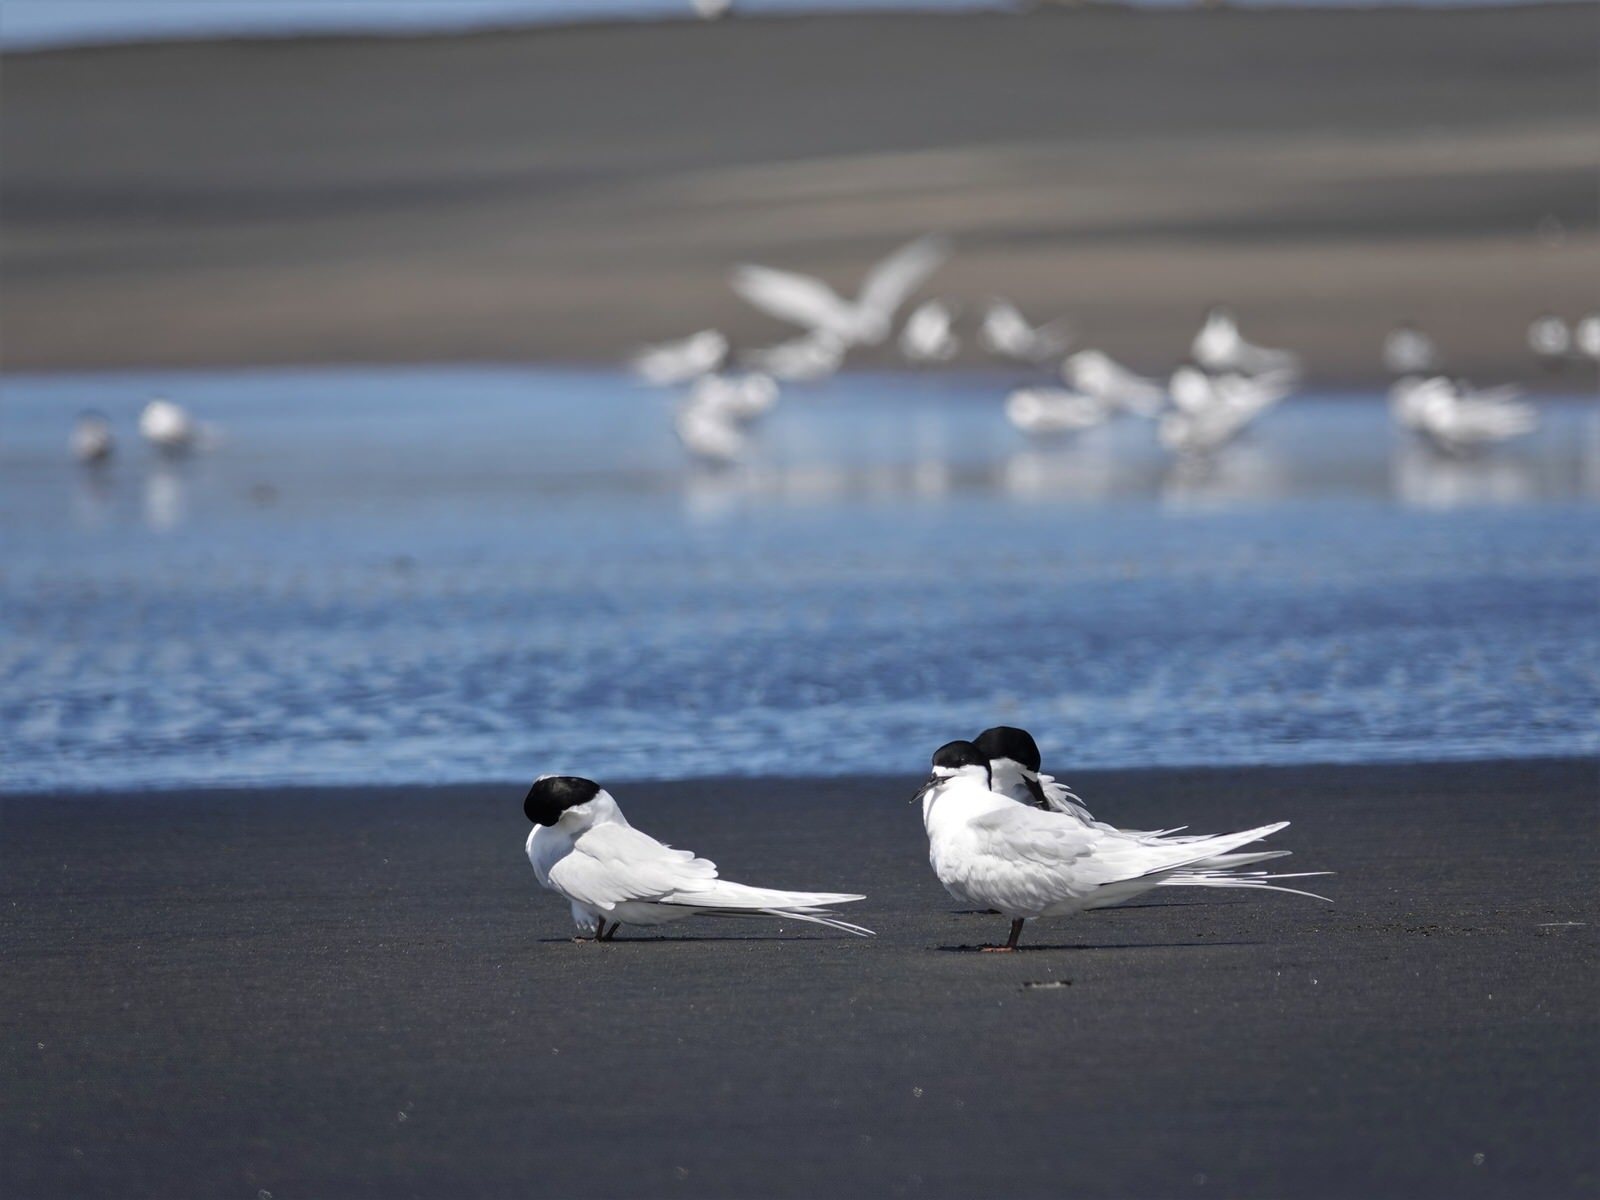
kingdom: Animalia
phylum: Chordata
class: Aves
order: Charadriiformes
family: Laridae
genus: Sterna
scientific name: Sterna striata
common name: White-fronted tern
